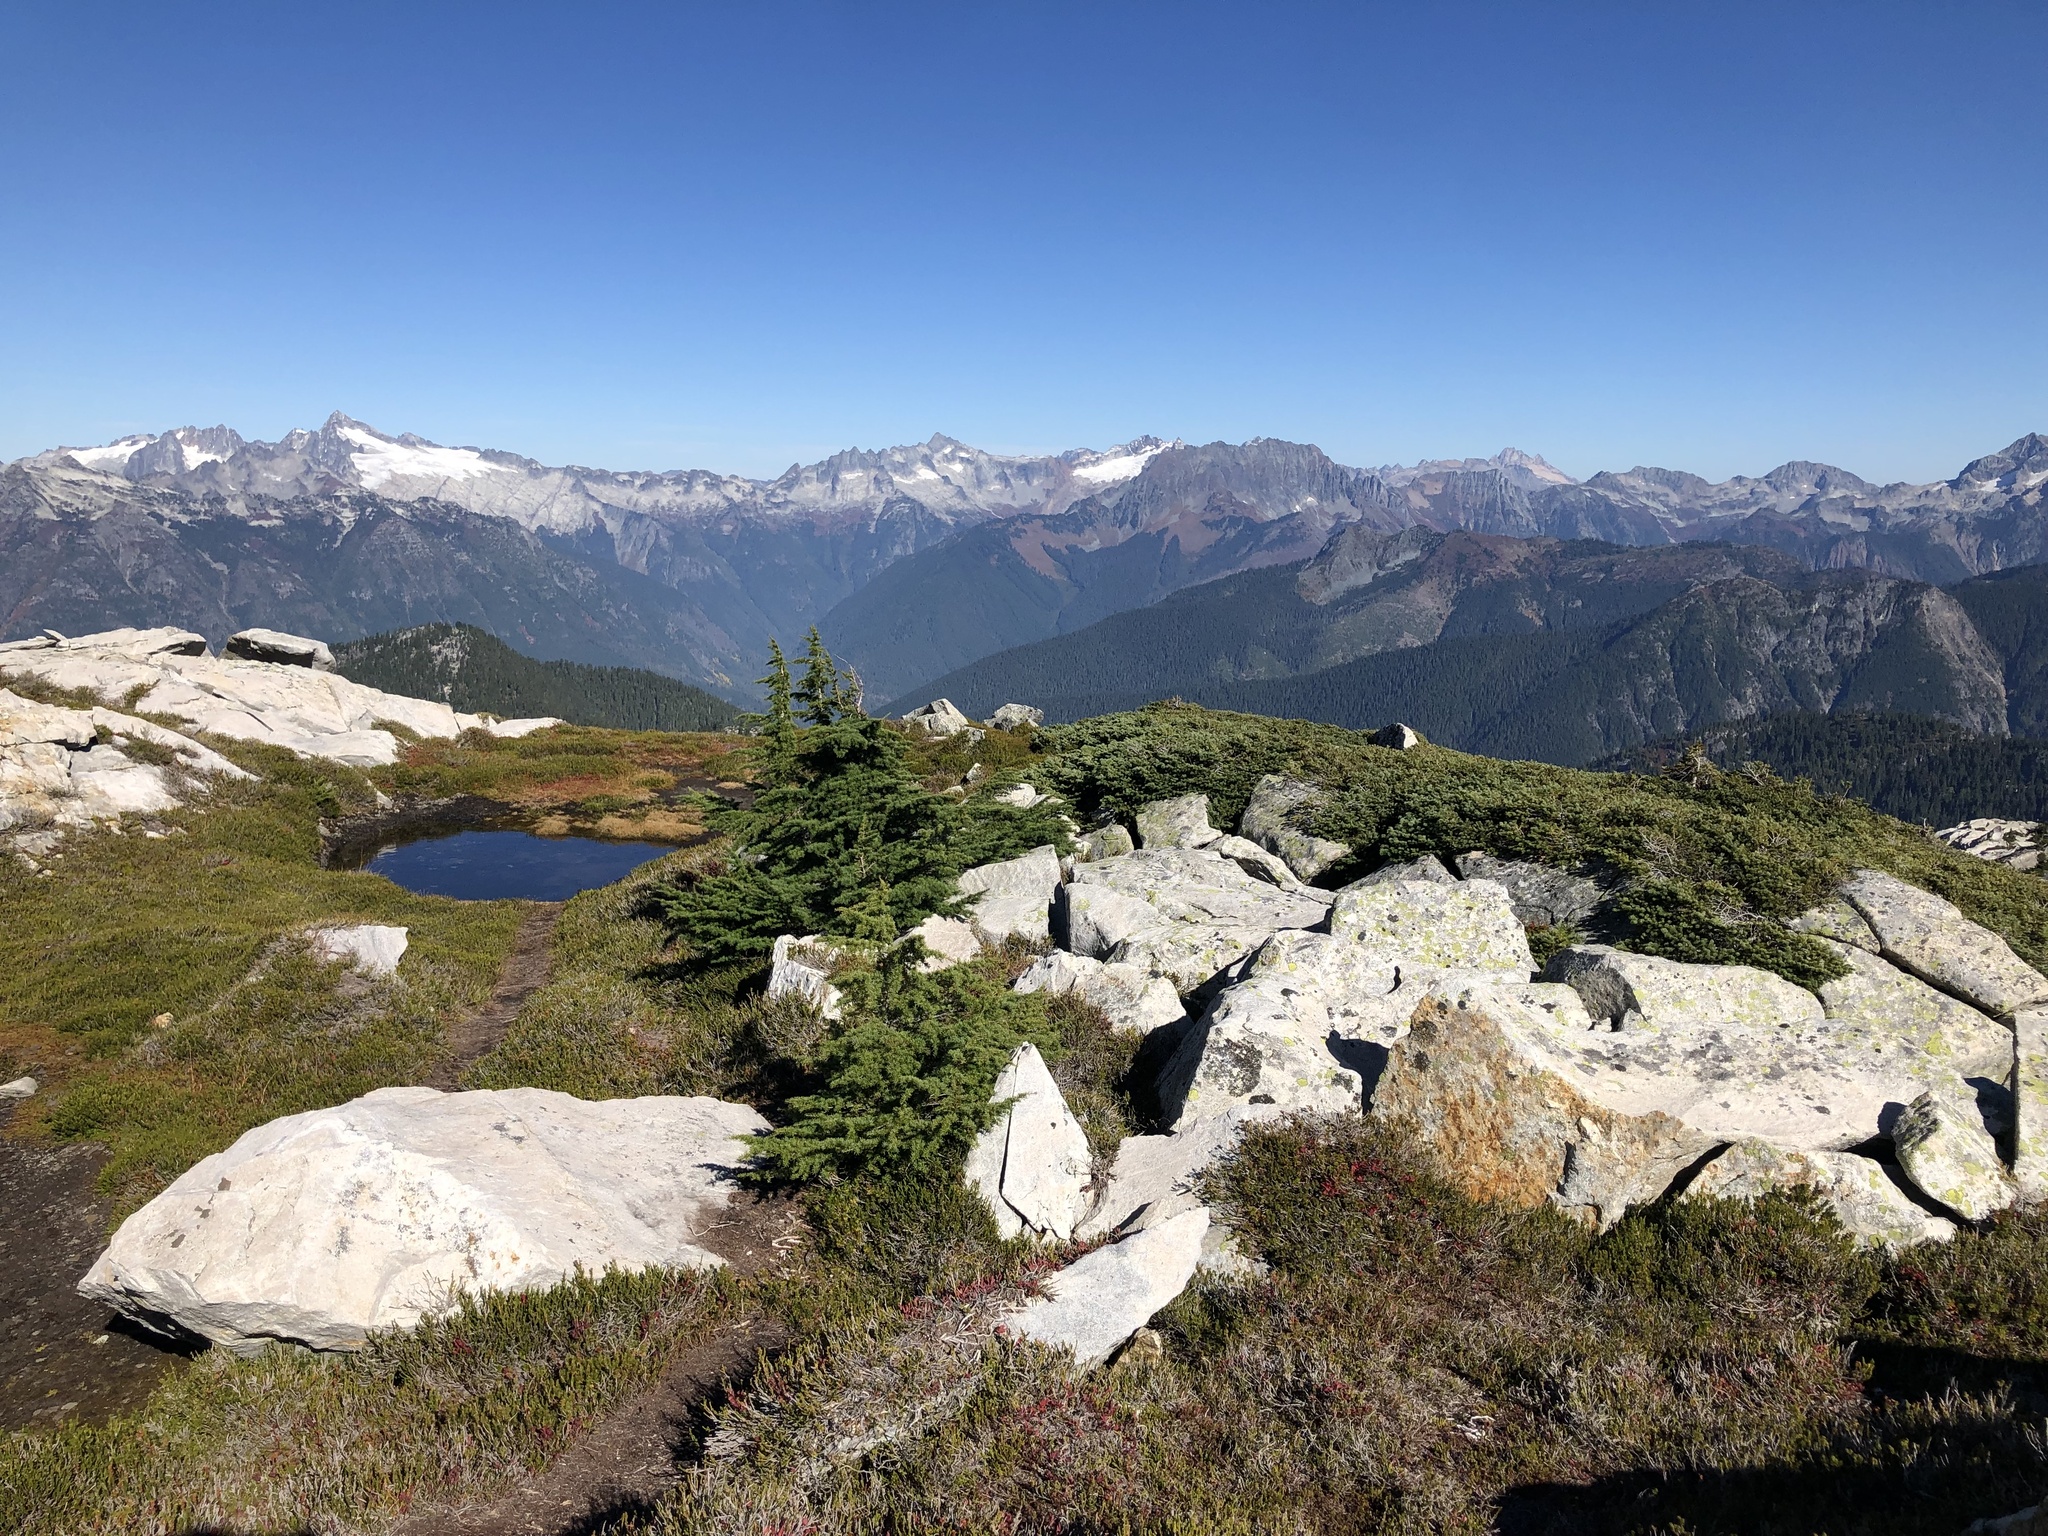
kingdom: Plantae
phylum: Tracheophyta
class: Pinopsida
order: Pinales
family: Pinaceae
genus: Tsuga
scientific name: Tsuga mertensiana
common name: Mountain hemlock
